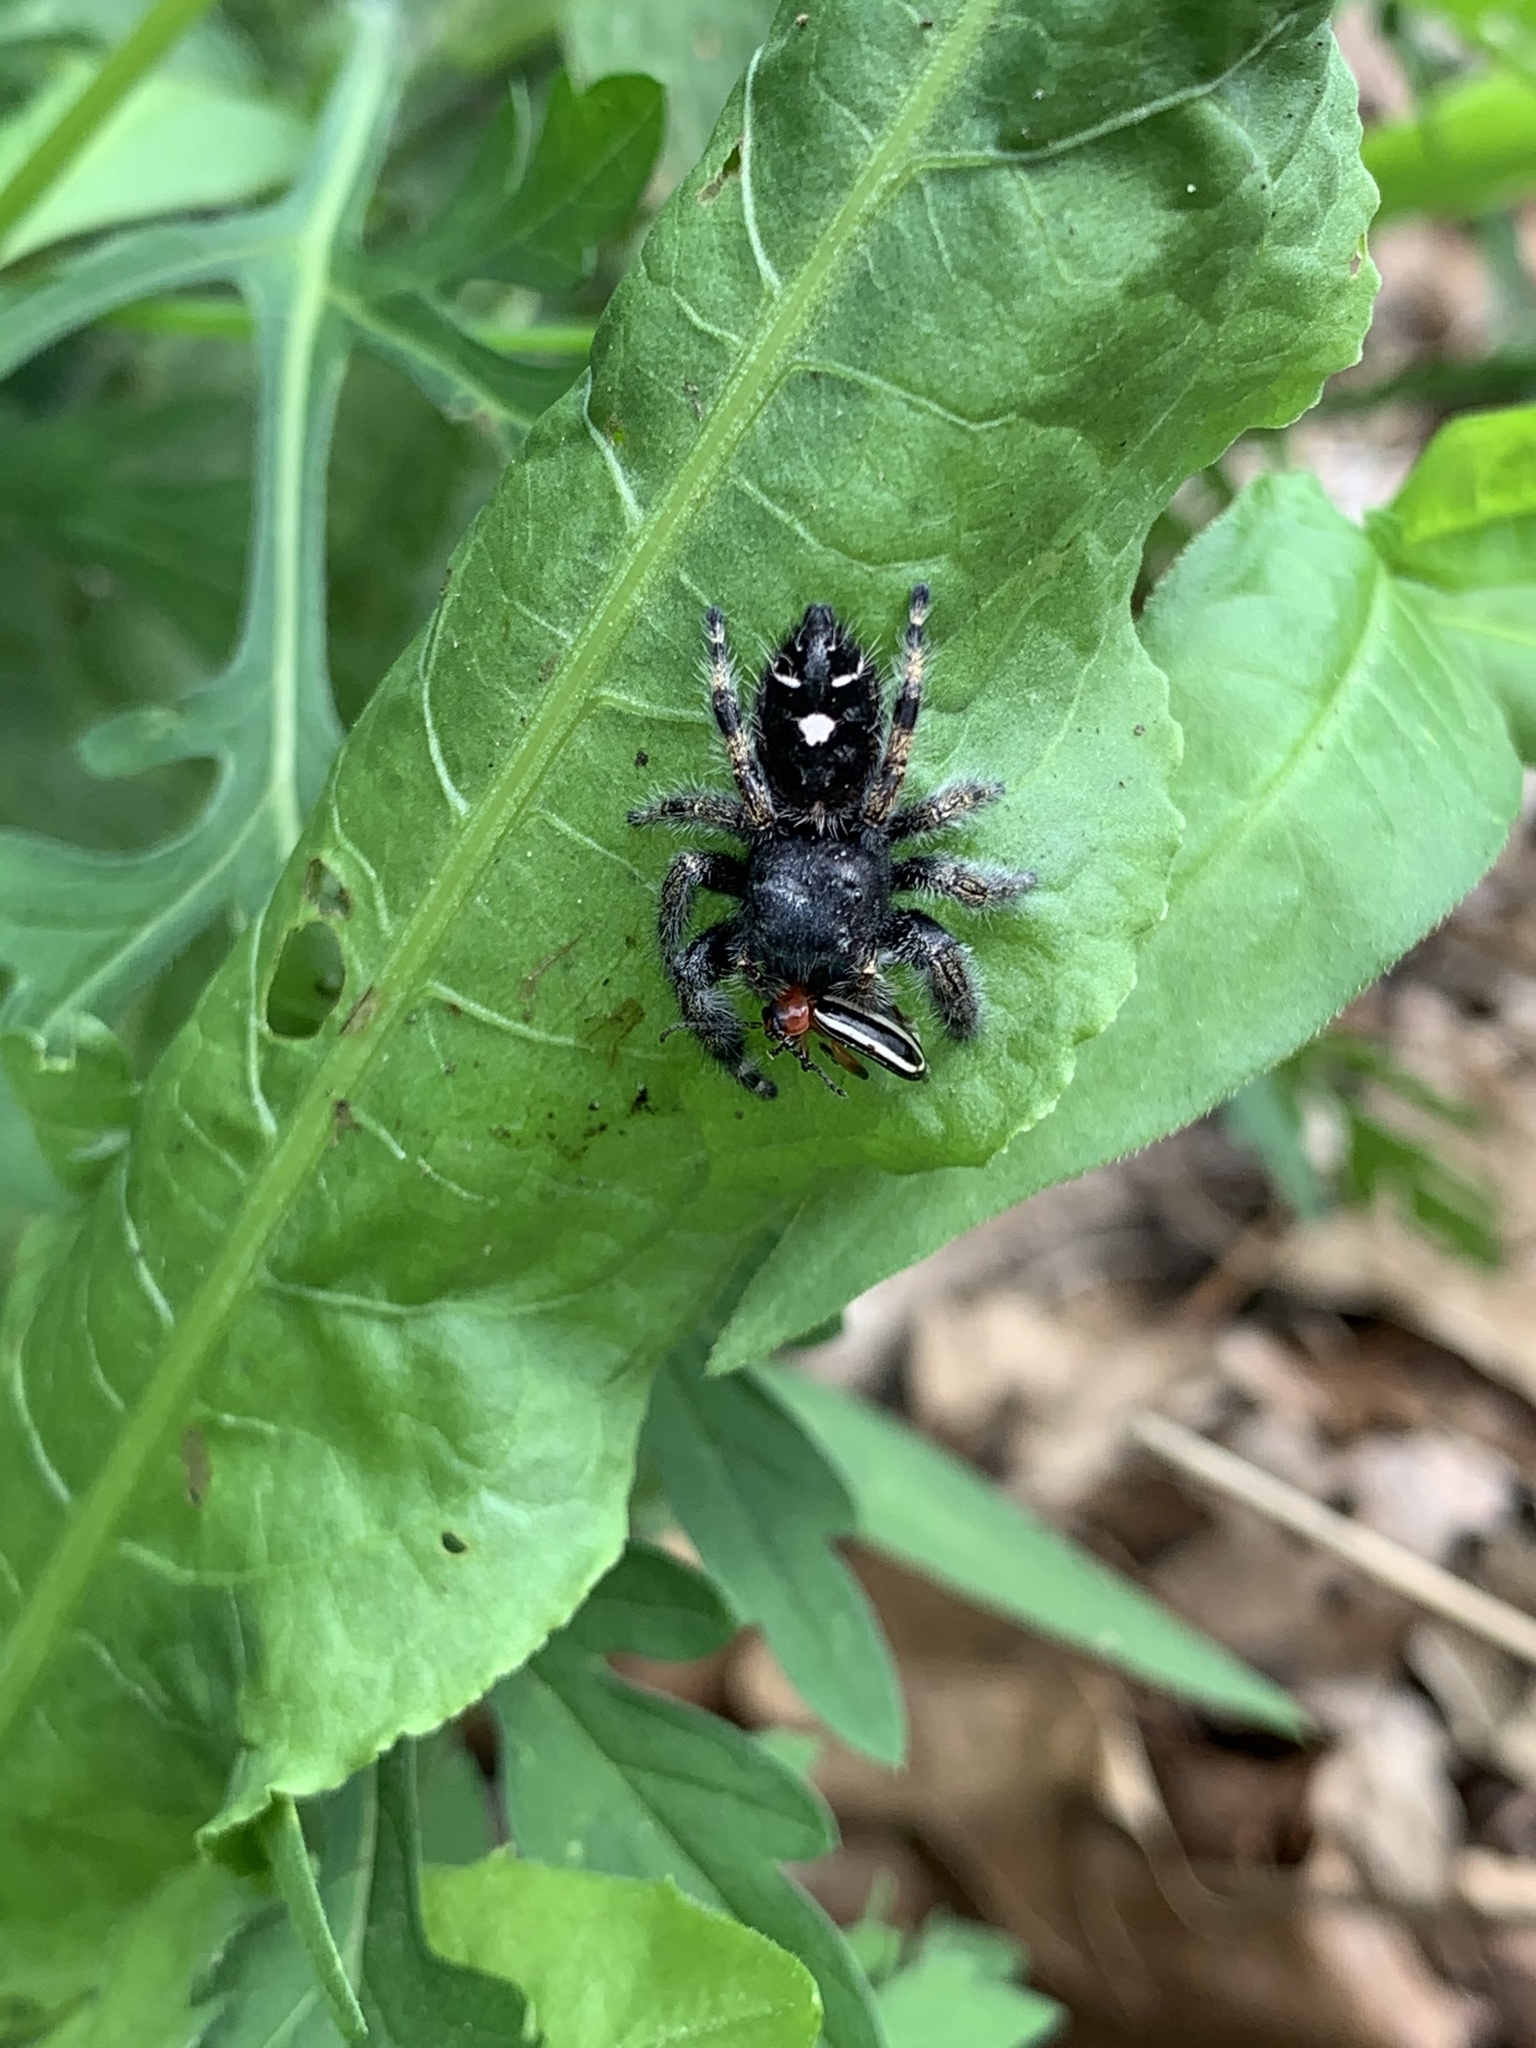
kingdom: Animalia
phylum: Arthropoda
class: Arachnida
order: Araneae
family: Salticidae
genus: Phidippus
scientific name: Phidippus audax
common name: Bold jumper
